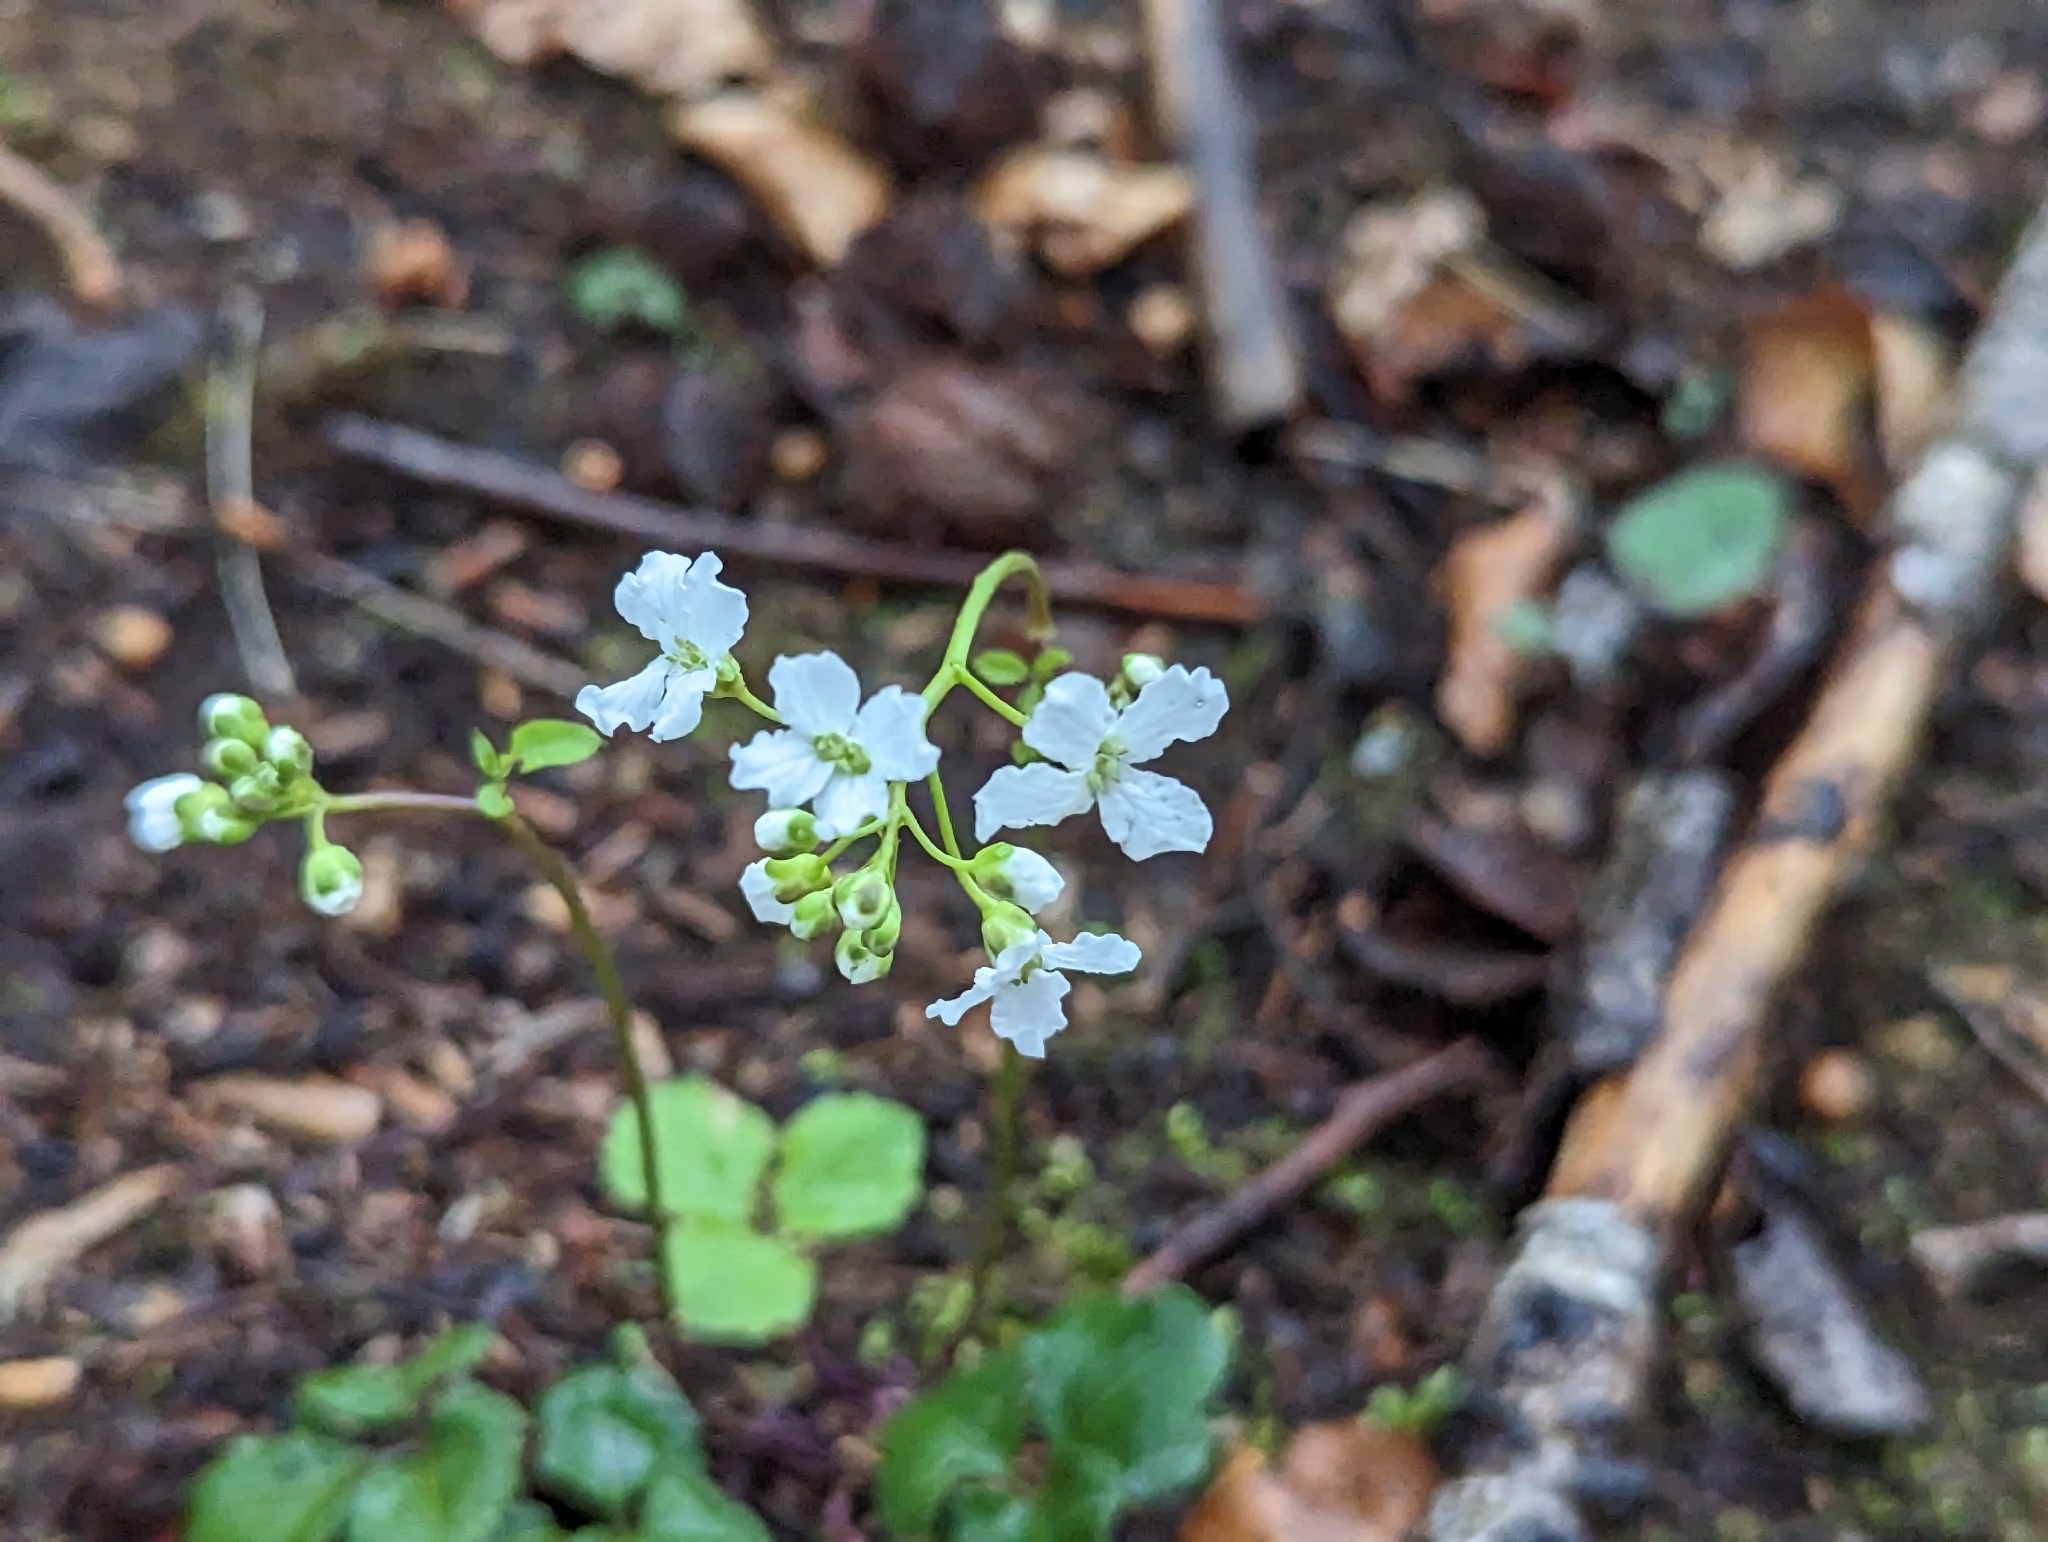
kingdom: Plantae
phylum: Tracheophyta
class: Magnoliopsida
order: Brassicales
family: Brassicaceae
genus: Cardamine
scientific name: Cardamine trifolia
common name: Trefoil cress
